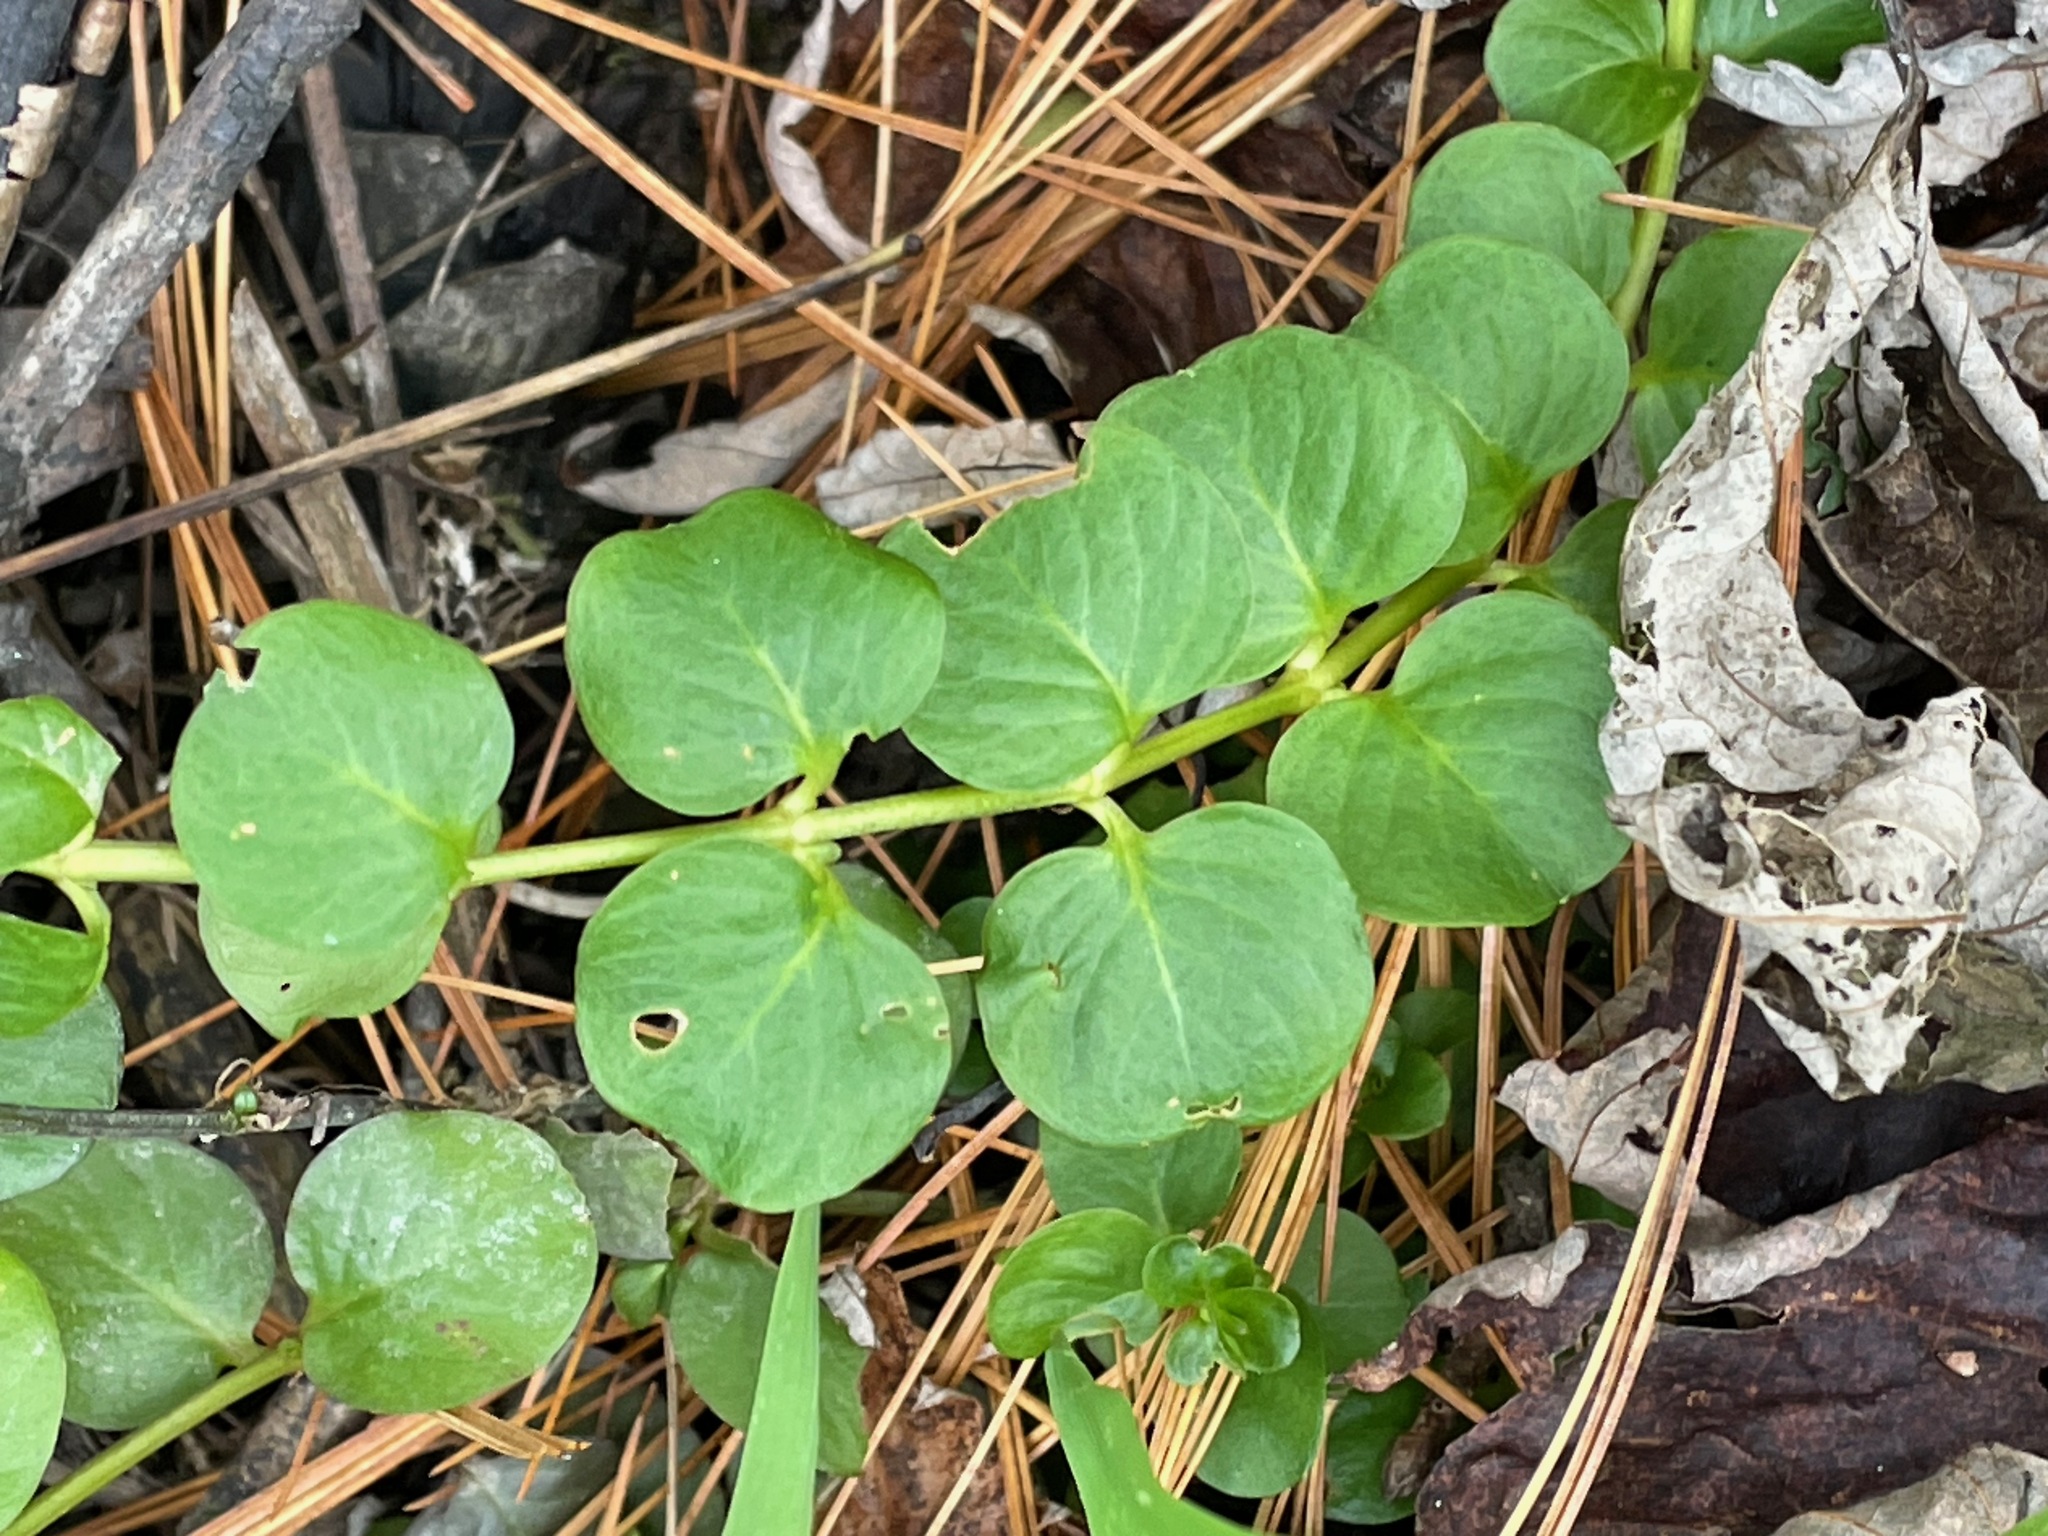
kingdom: Plantae
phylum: Tracheophyta
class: Magnoliopsida
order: Ericales
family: Primulaceae
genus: Lysimachia
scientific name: Lysimachia nummularia
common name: Moneywort
